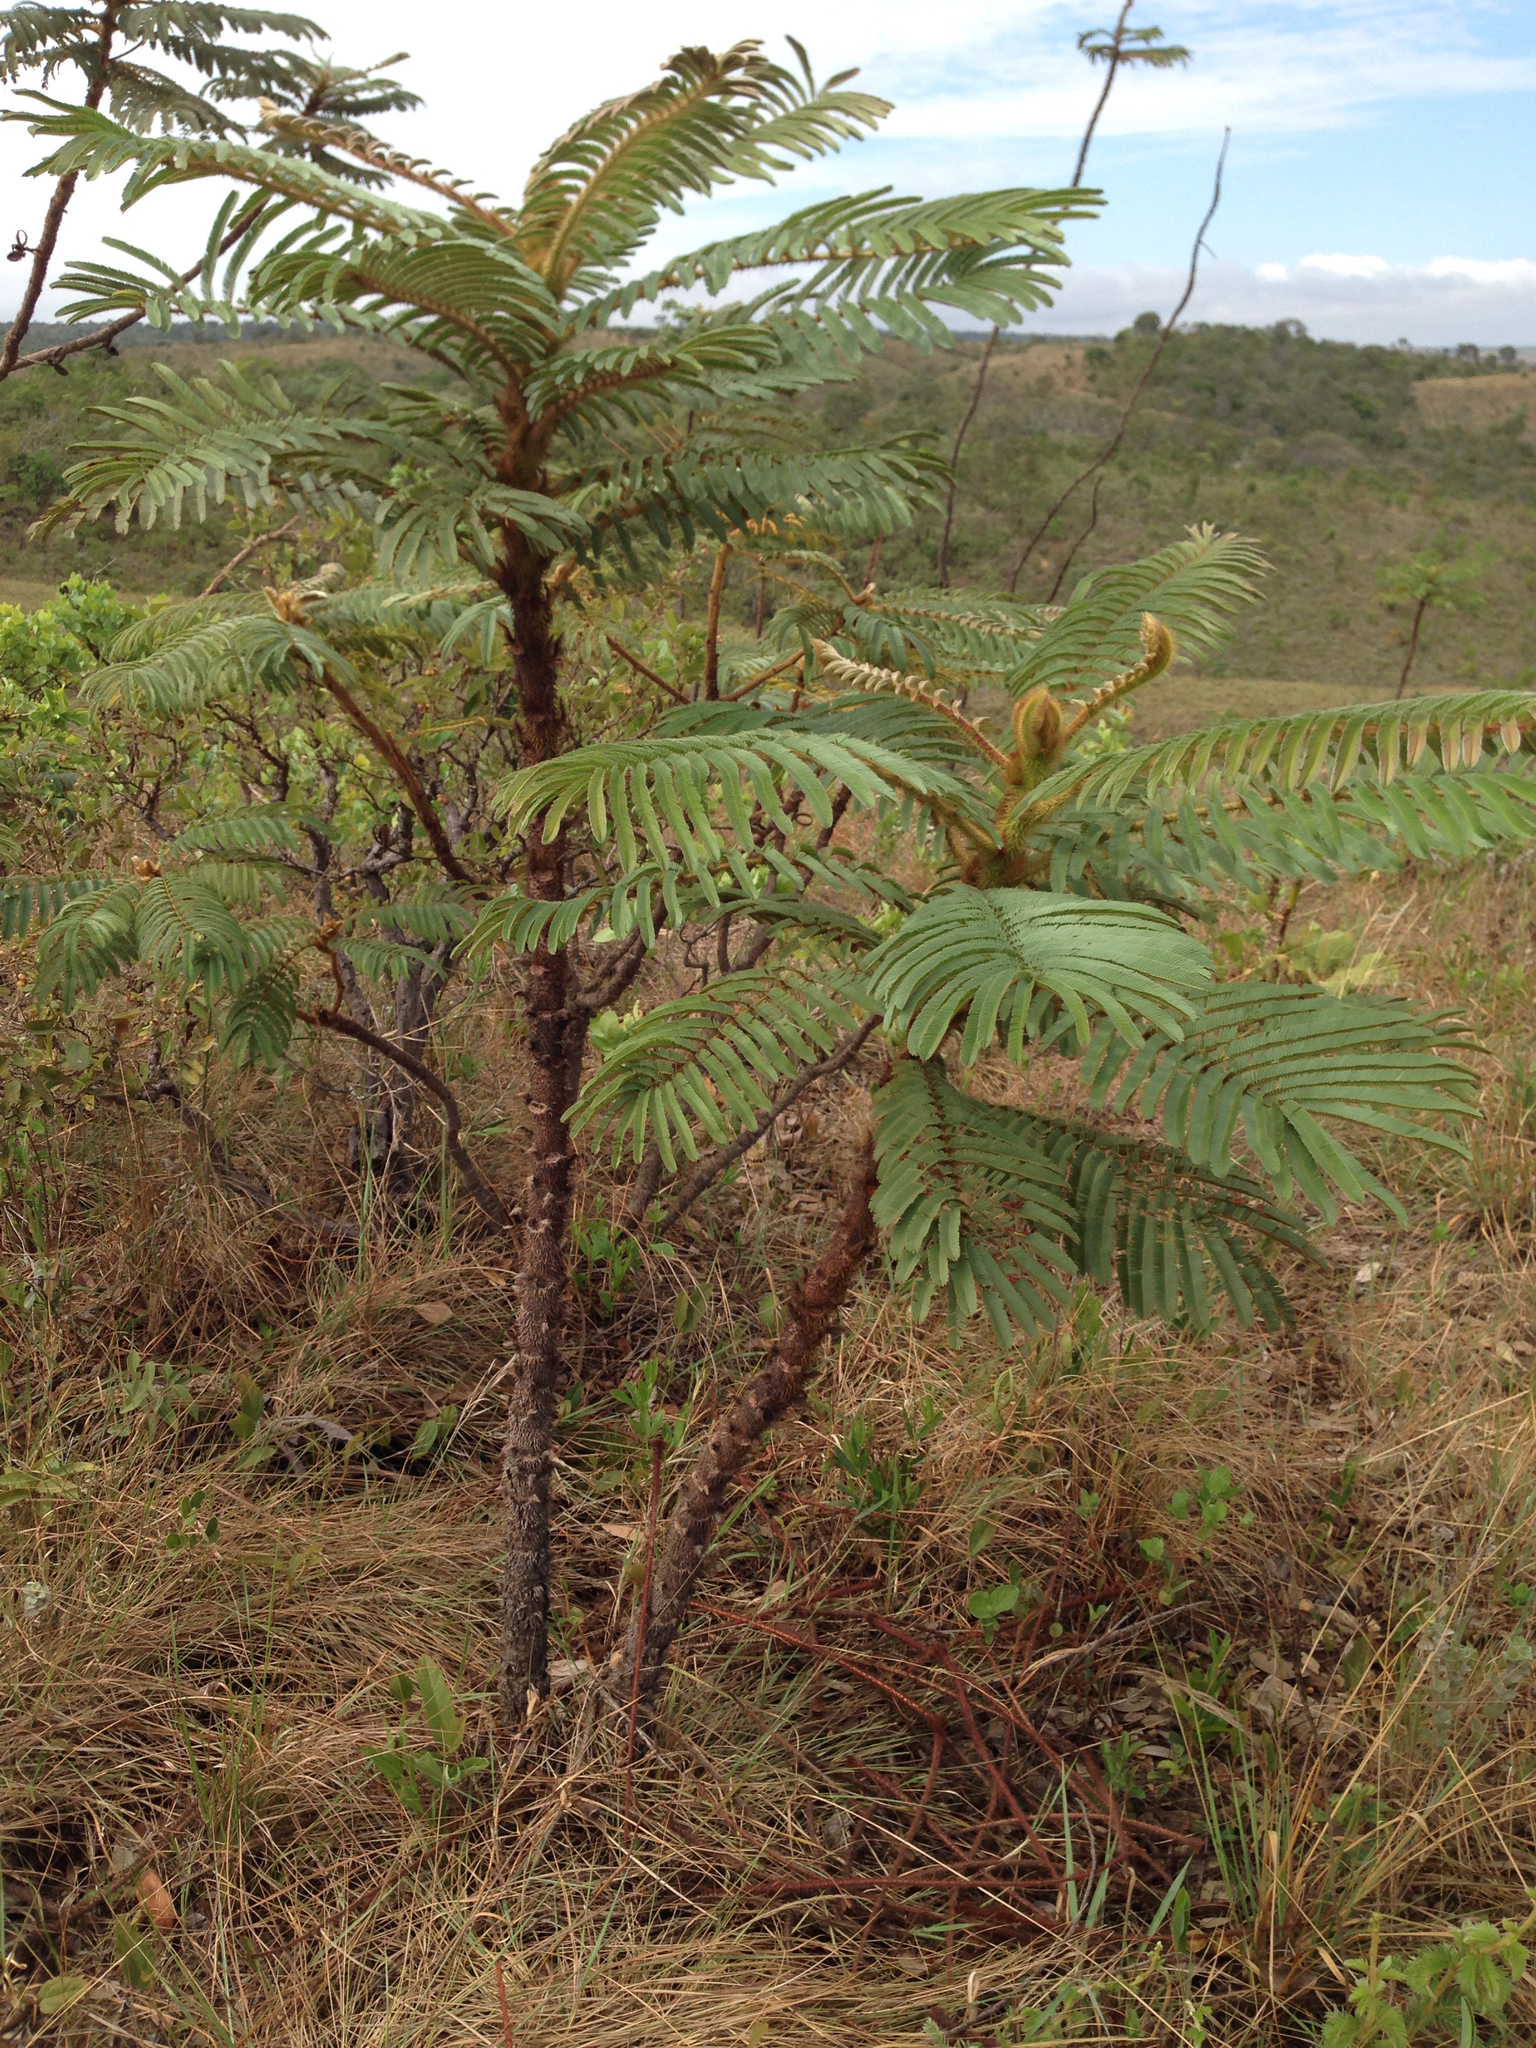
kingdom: Plantae
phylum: Tracheophyta
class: Magnoliopsida
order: Fabales
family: Fabaceae
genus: Mimosa
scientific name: Mimosa setosissima
